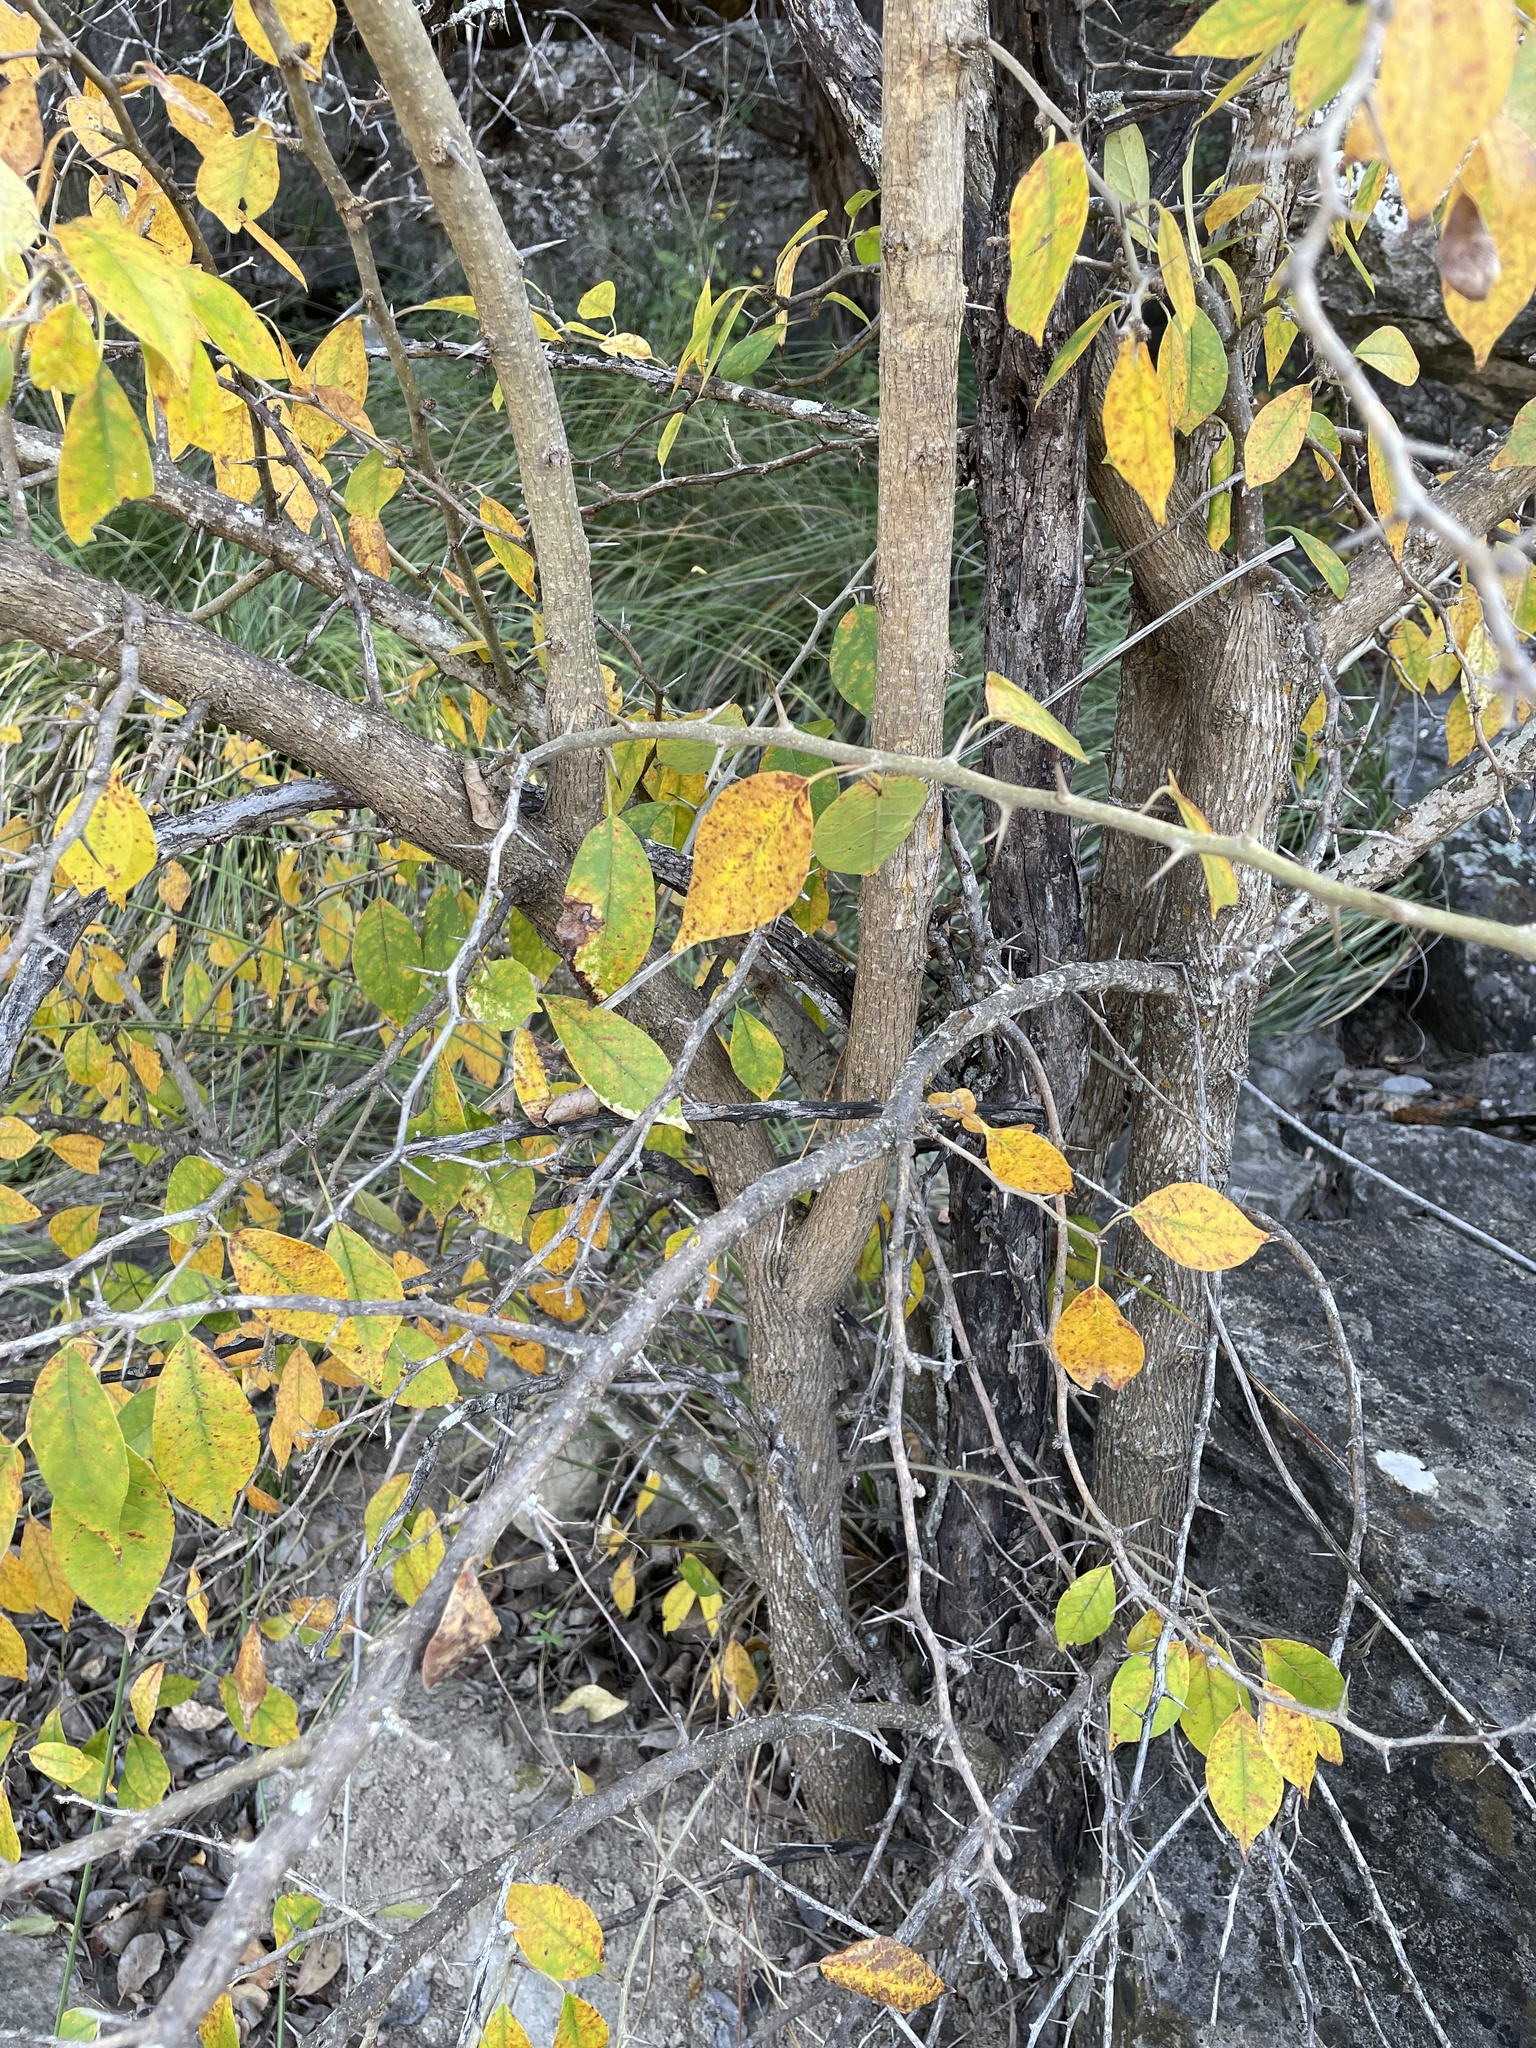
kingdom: Plantae
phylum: Tracheophyta
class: Magnoliopsida
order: Rosales
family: Moraceae
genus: Maclura
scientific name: Maclura pomifera
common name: Osage-orange
